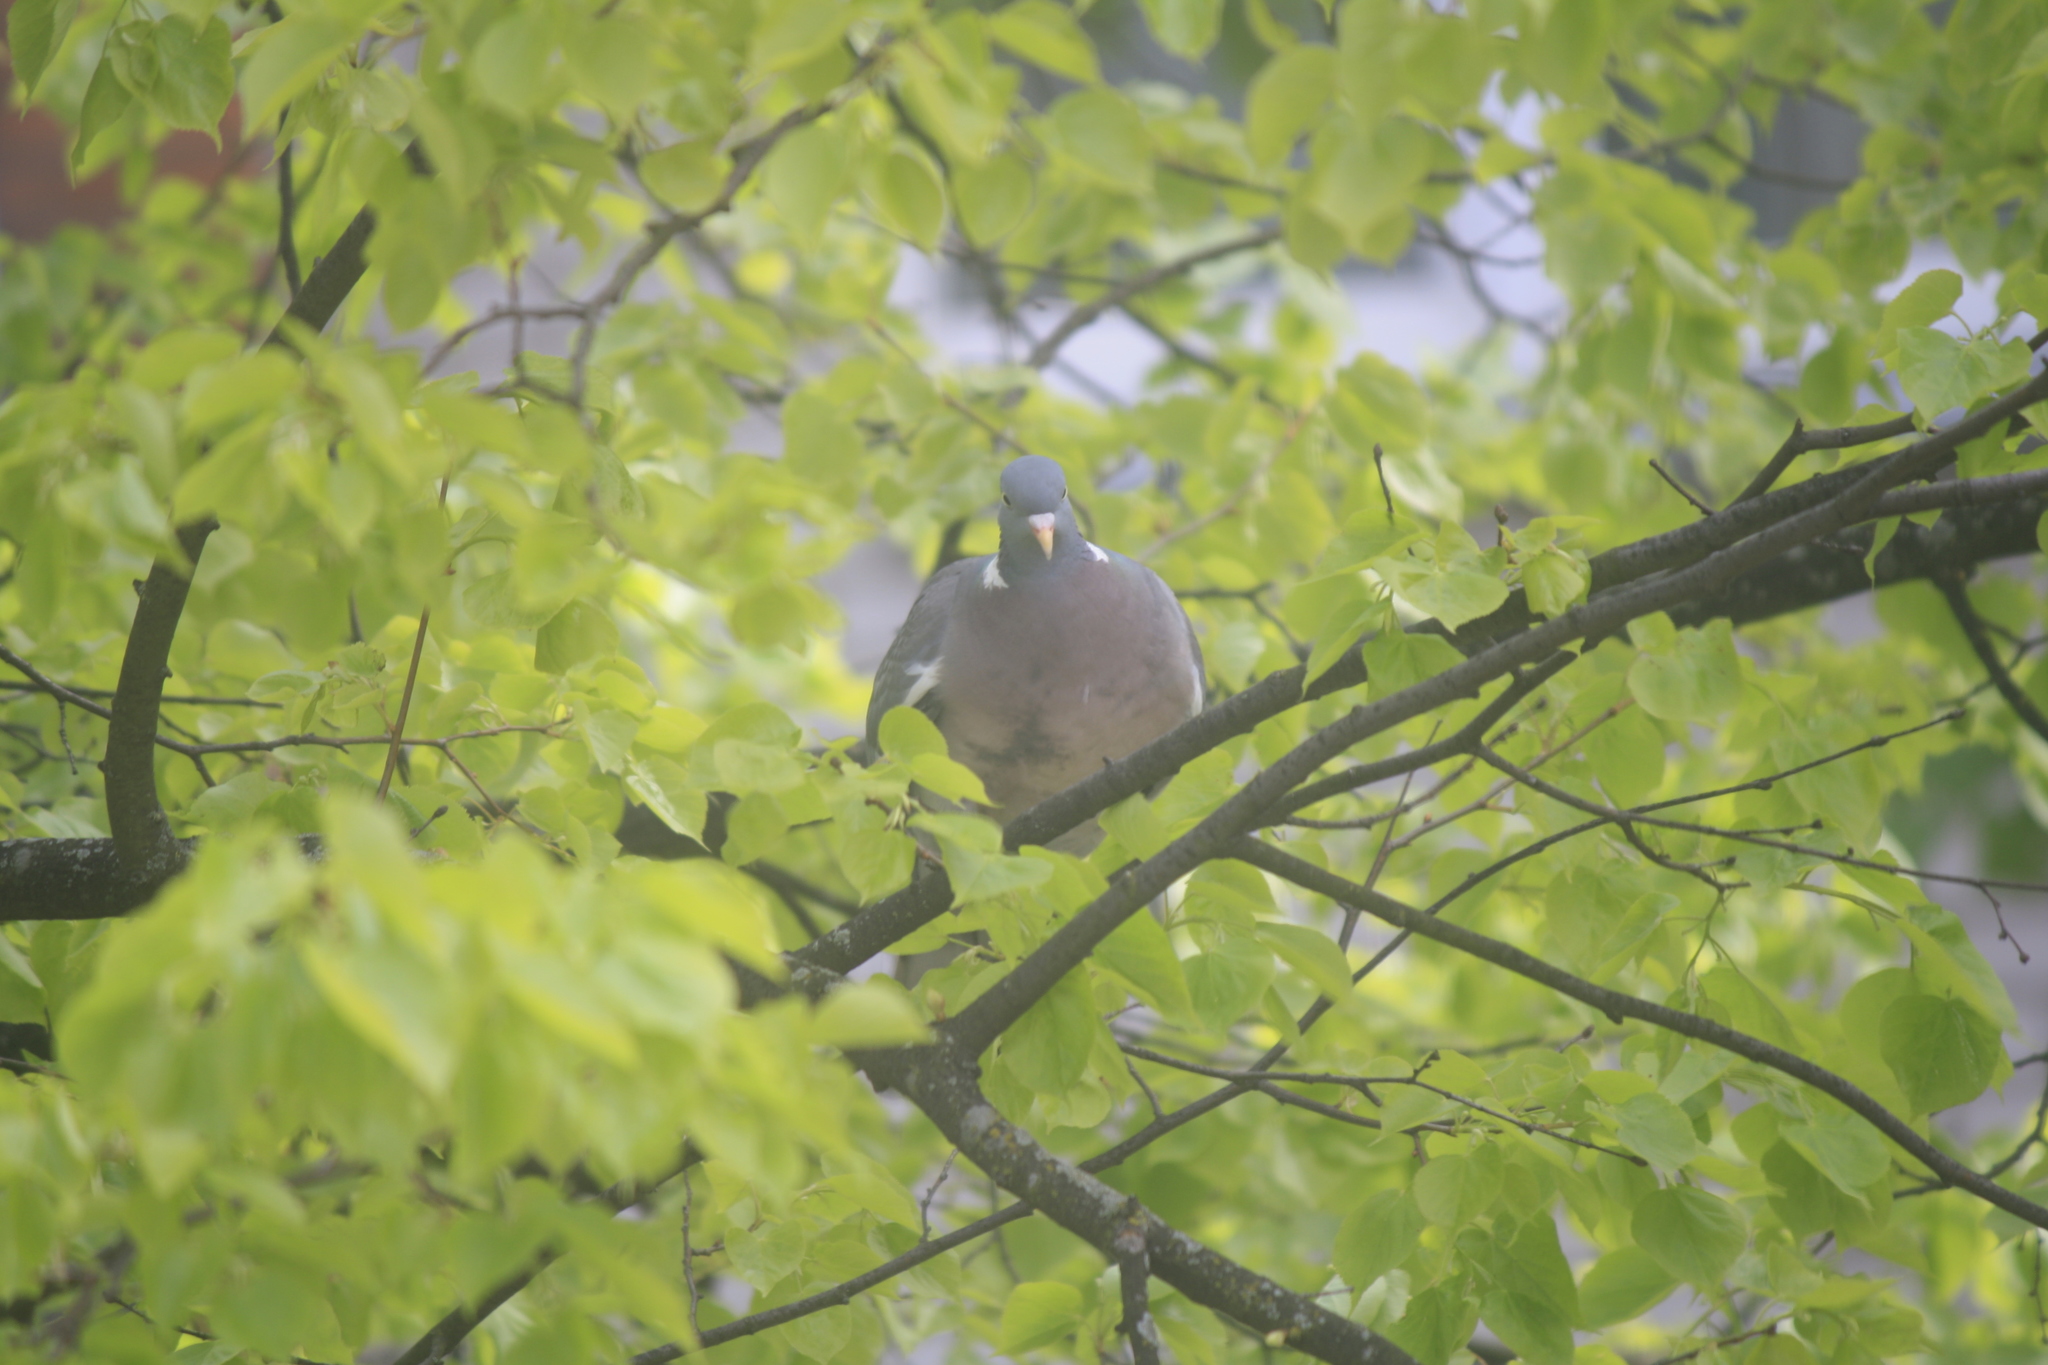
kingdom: Animalia
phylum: Chordata
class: Aves
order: Columbiformes
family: Columbidae
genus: Columba
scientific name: Columba palumbus
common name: Common wood pigeon
